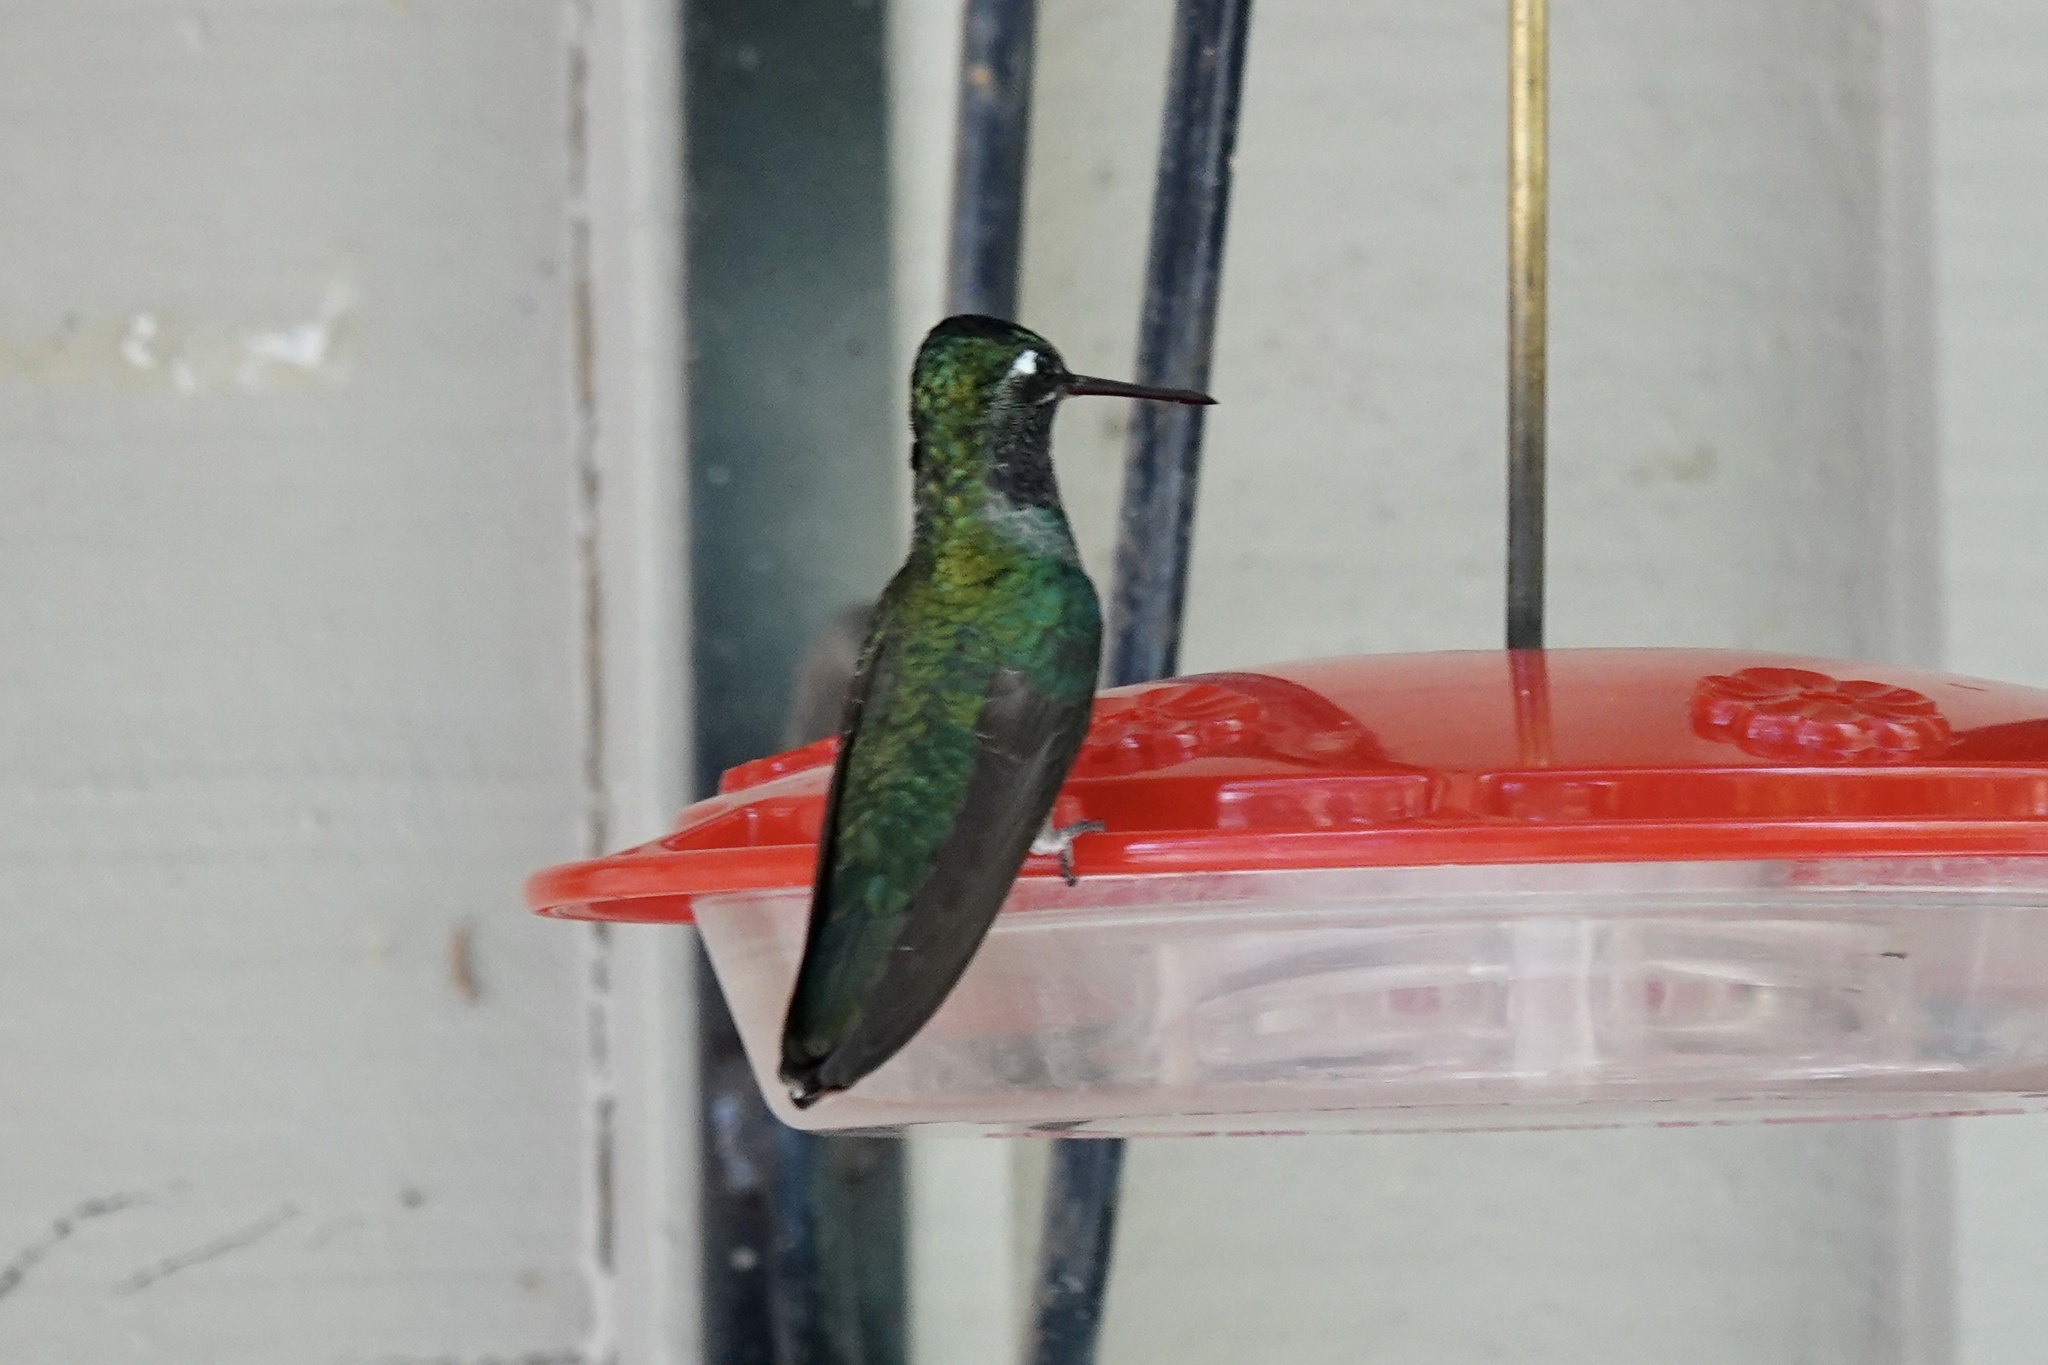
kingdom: Animalia
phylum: Chordata
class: Aves
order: Apodiformes
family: Trochilidae
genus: Eugenes
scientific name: Eugenes fulgens
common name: Magnificent hummingbird
